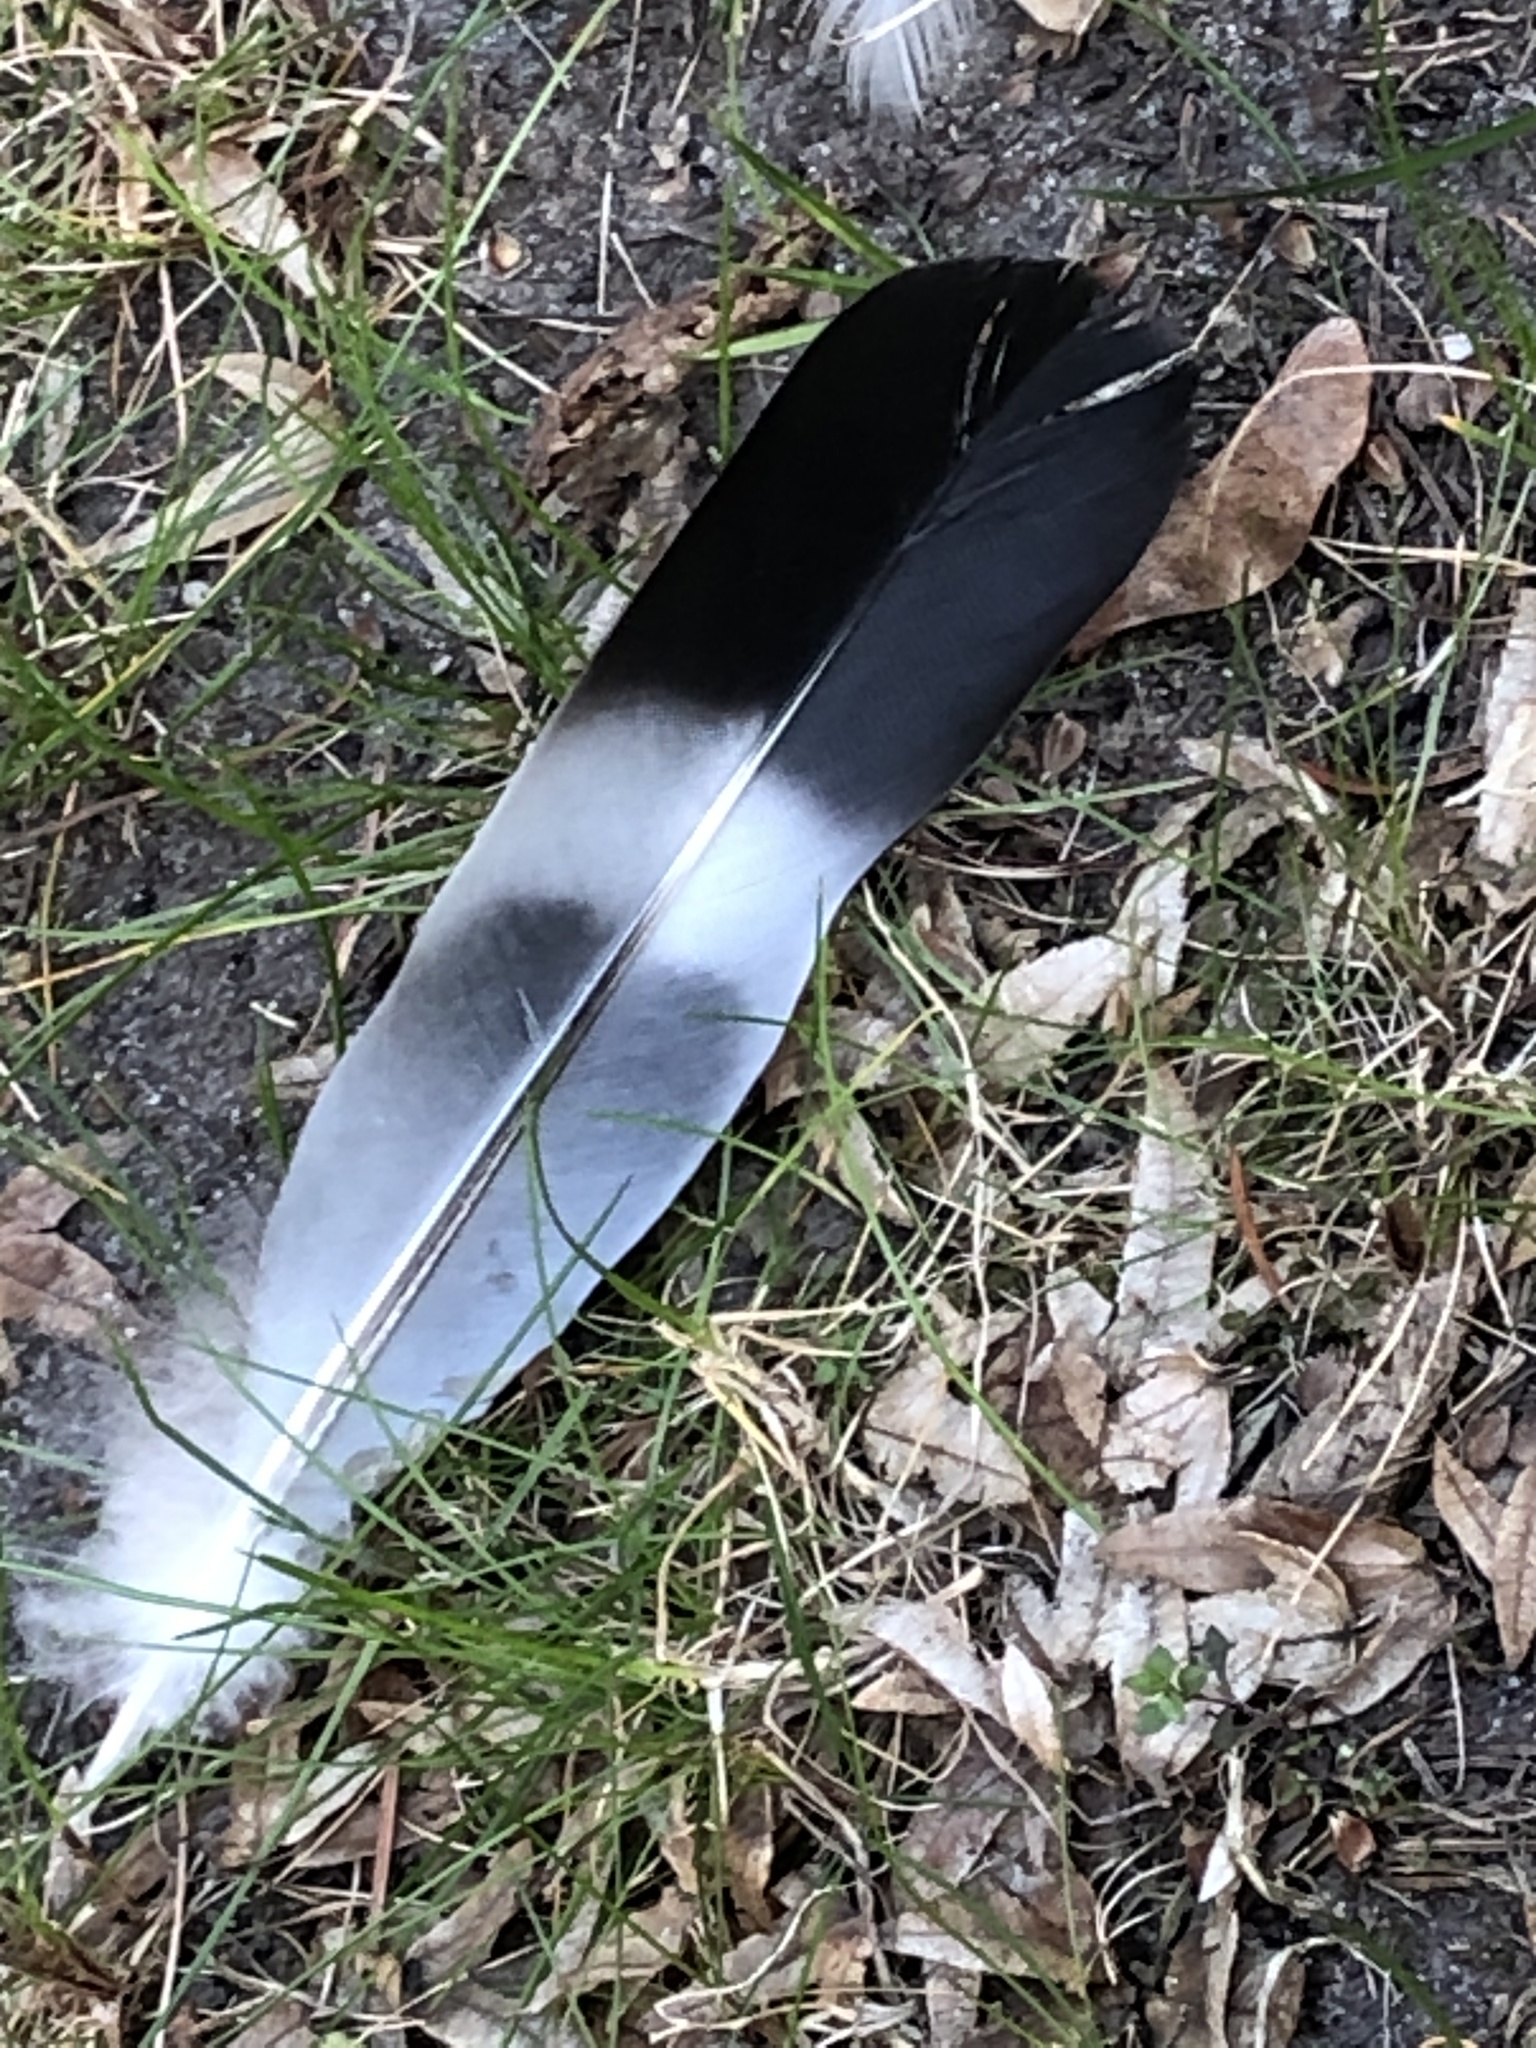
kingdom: Animalia
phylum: Chordata
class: Aves
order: Columbiformes
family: Columbidae
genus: Columba
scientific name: Columba palumbus
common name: Common wood pigeon
